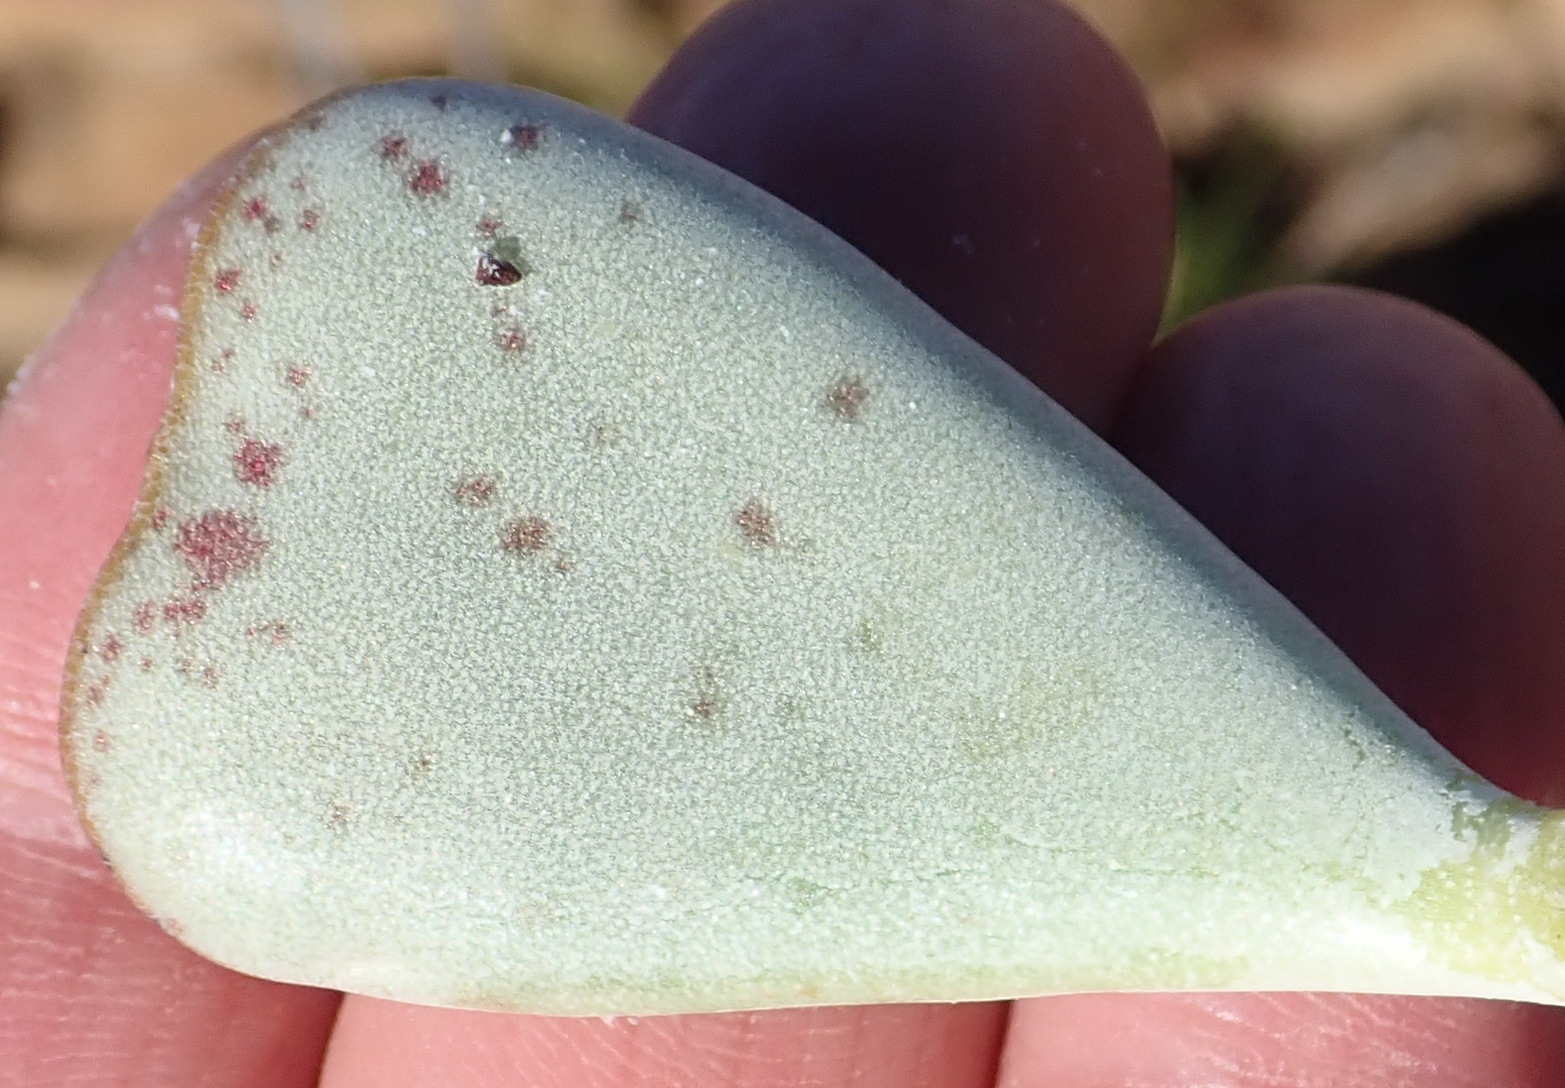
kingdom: Plantae
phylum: Tracheophyta
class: Magnoliopsida
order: Saxifragales
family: Crassulaceae
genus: Adromischus
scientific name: Adromischus triflorus
